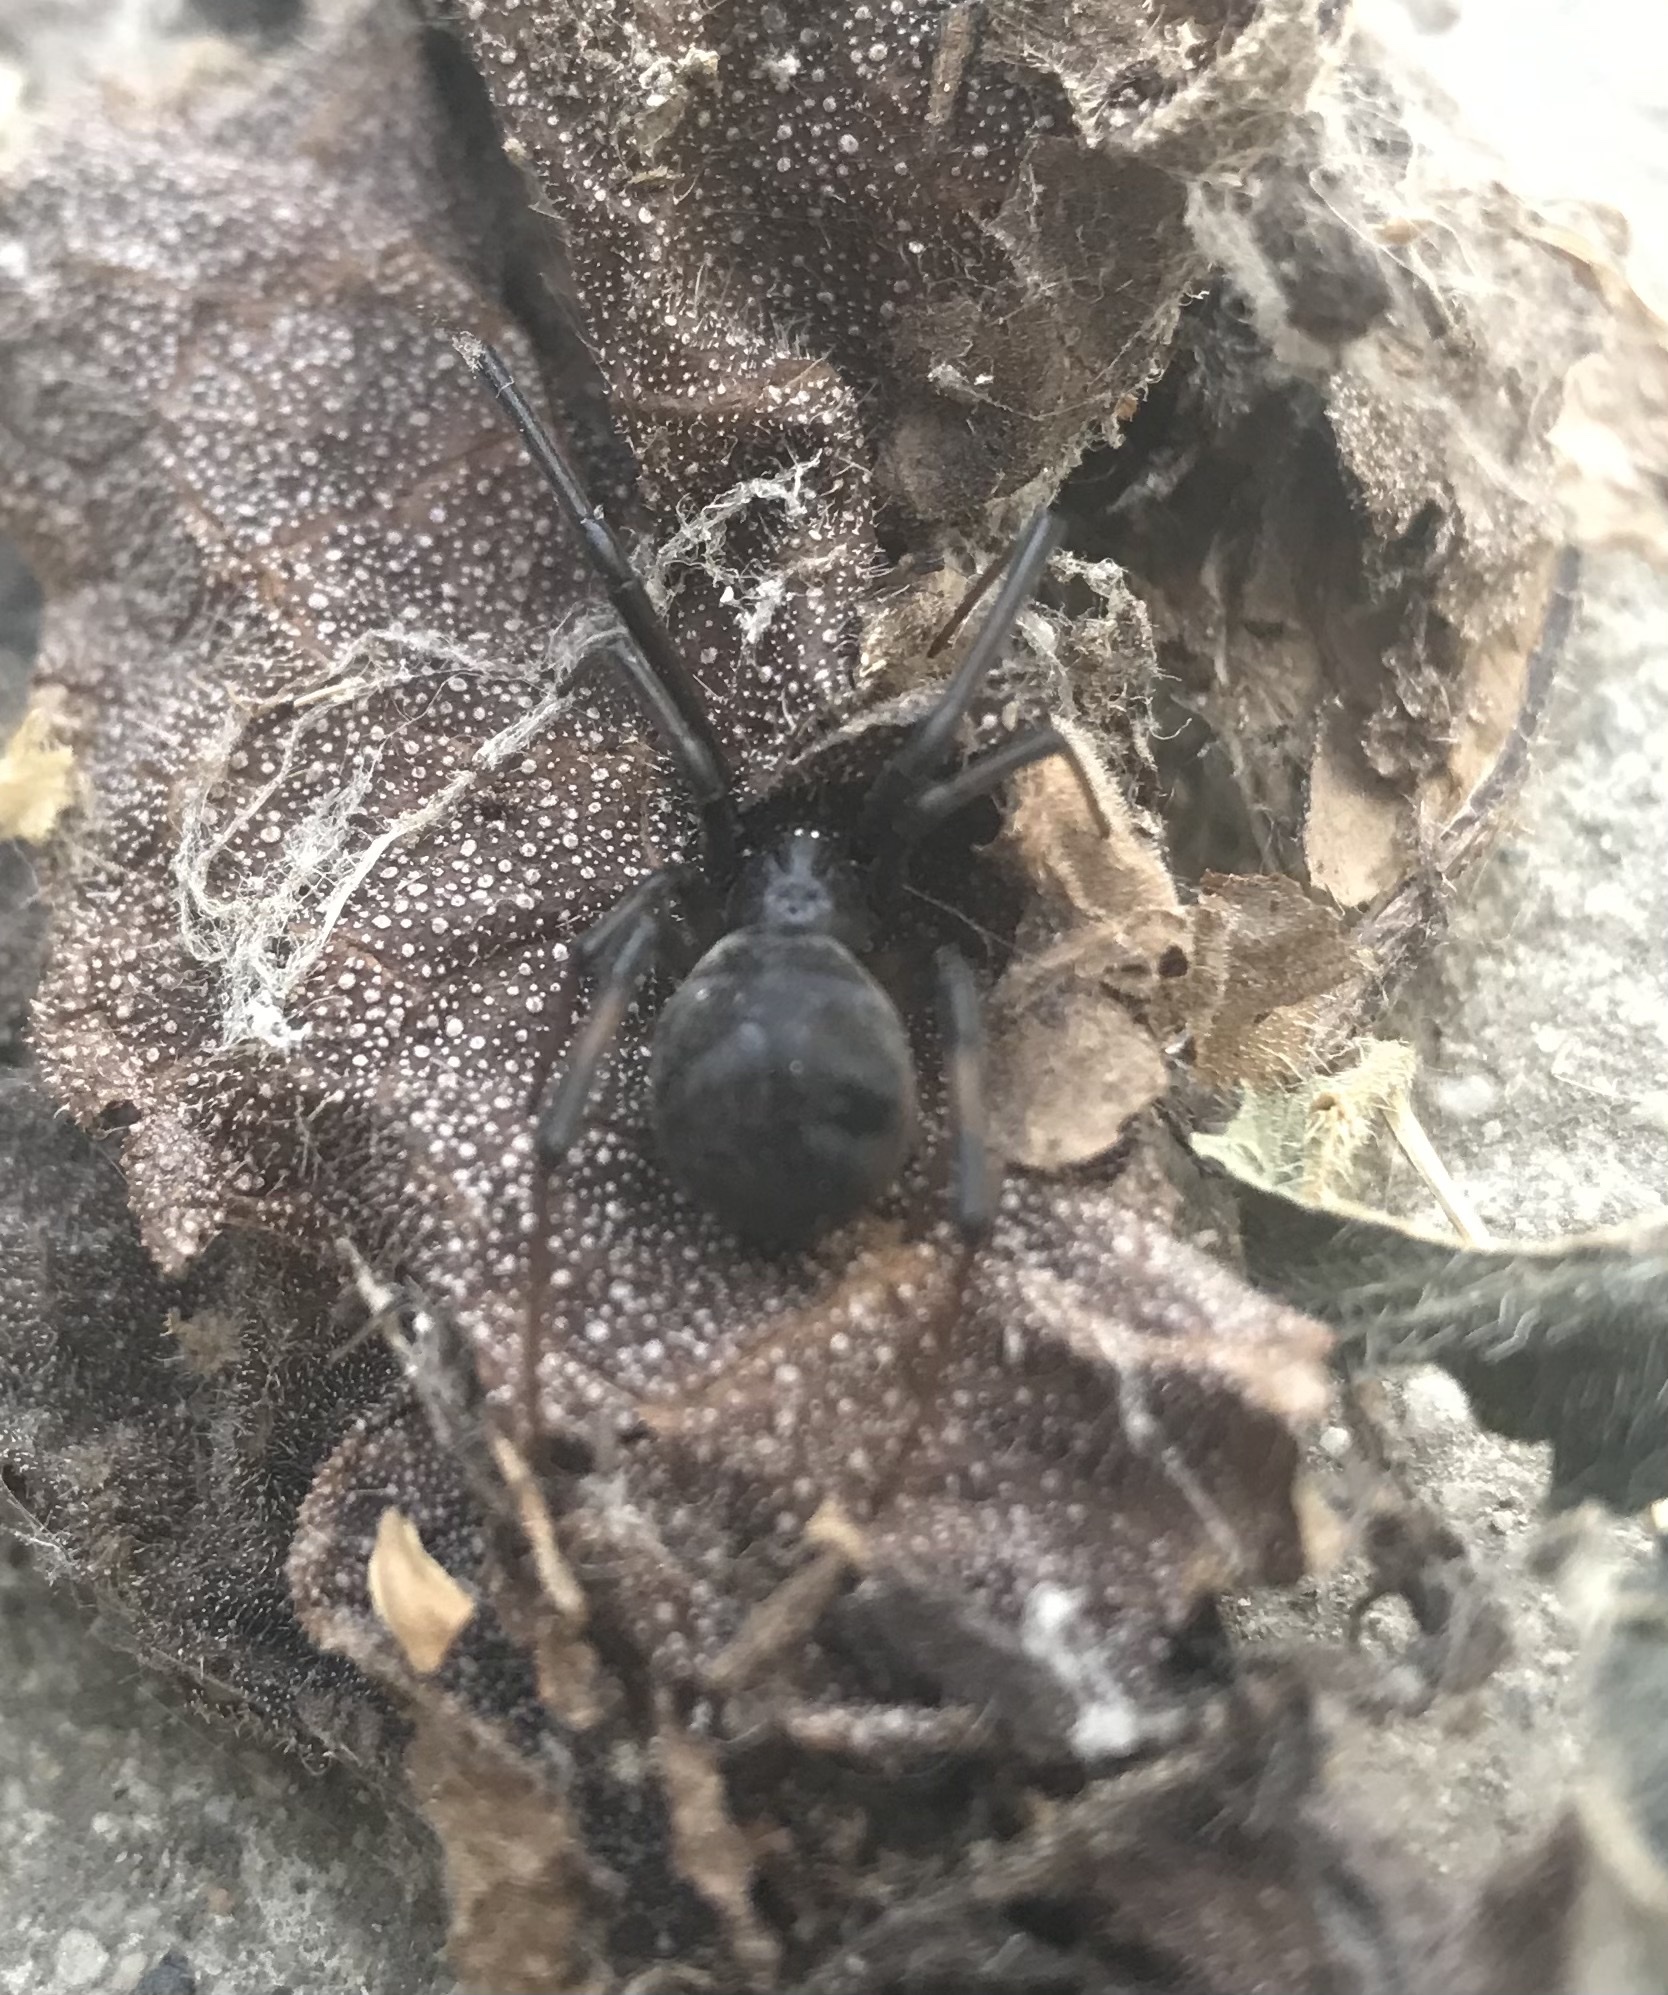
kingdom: Animalia
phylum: Arthropoda
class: Arachnida
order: Araneae
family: Theridiidae
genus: Latrodectus
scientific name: Latrodectus geometricus
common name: Brown widow spider
